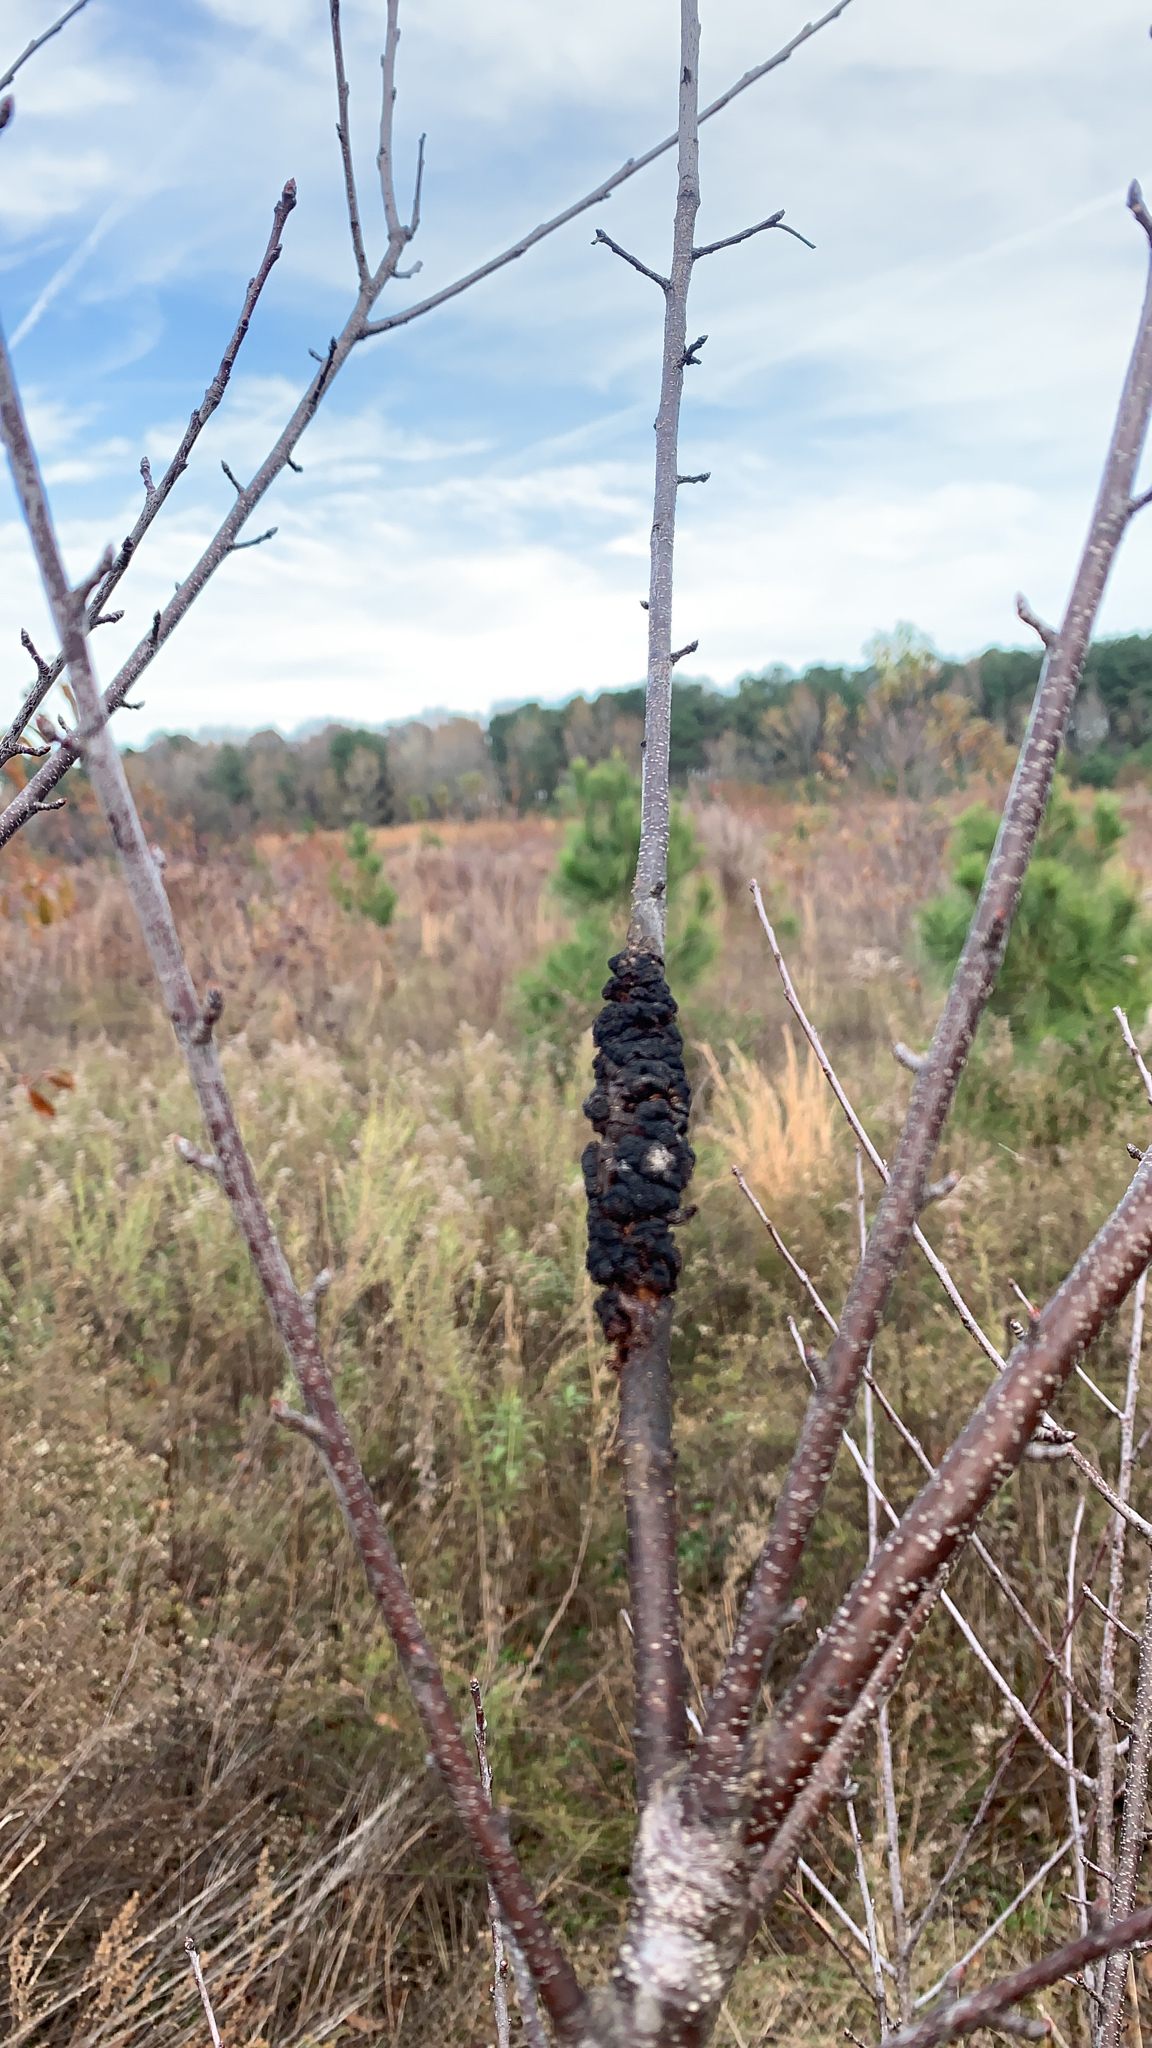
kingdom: Fungi
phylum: Ascomycota
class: Dothideomycetes
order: Venturiales
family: Venturiaceae
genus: Apiosporina
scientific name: Apiosporina morbosa
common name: Black knot
